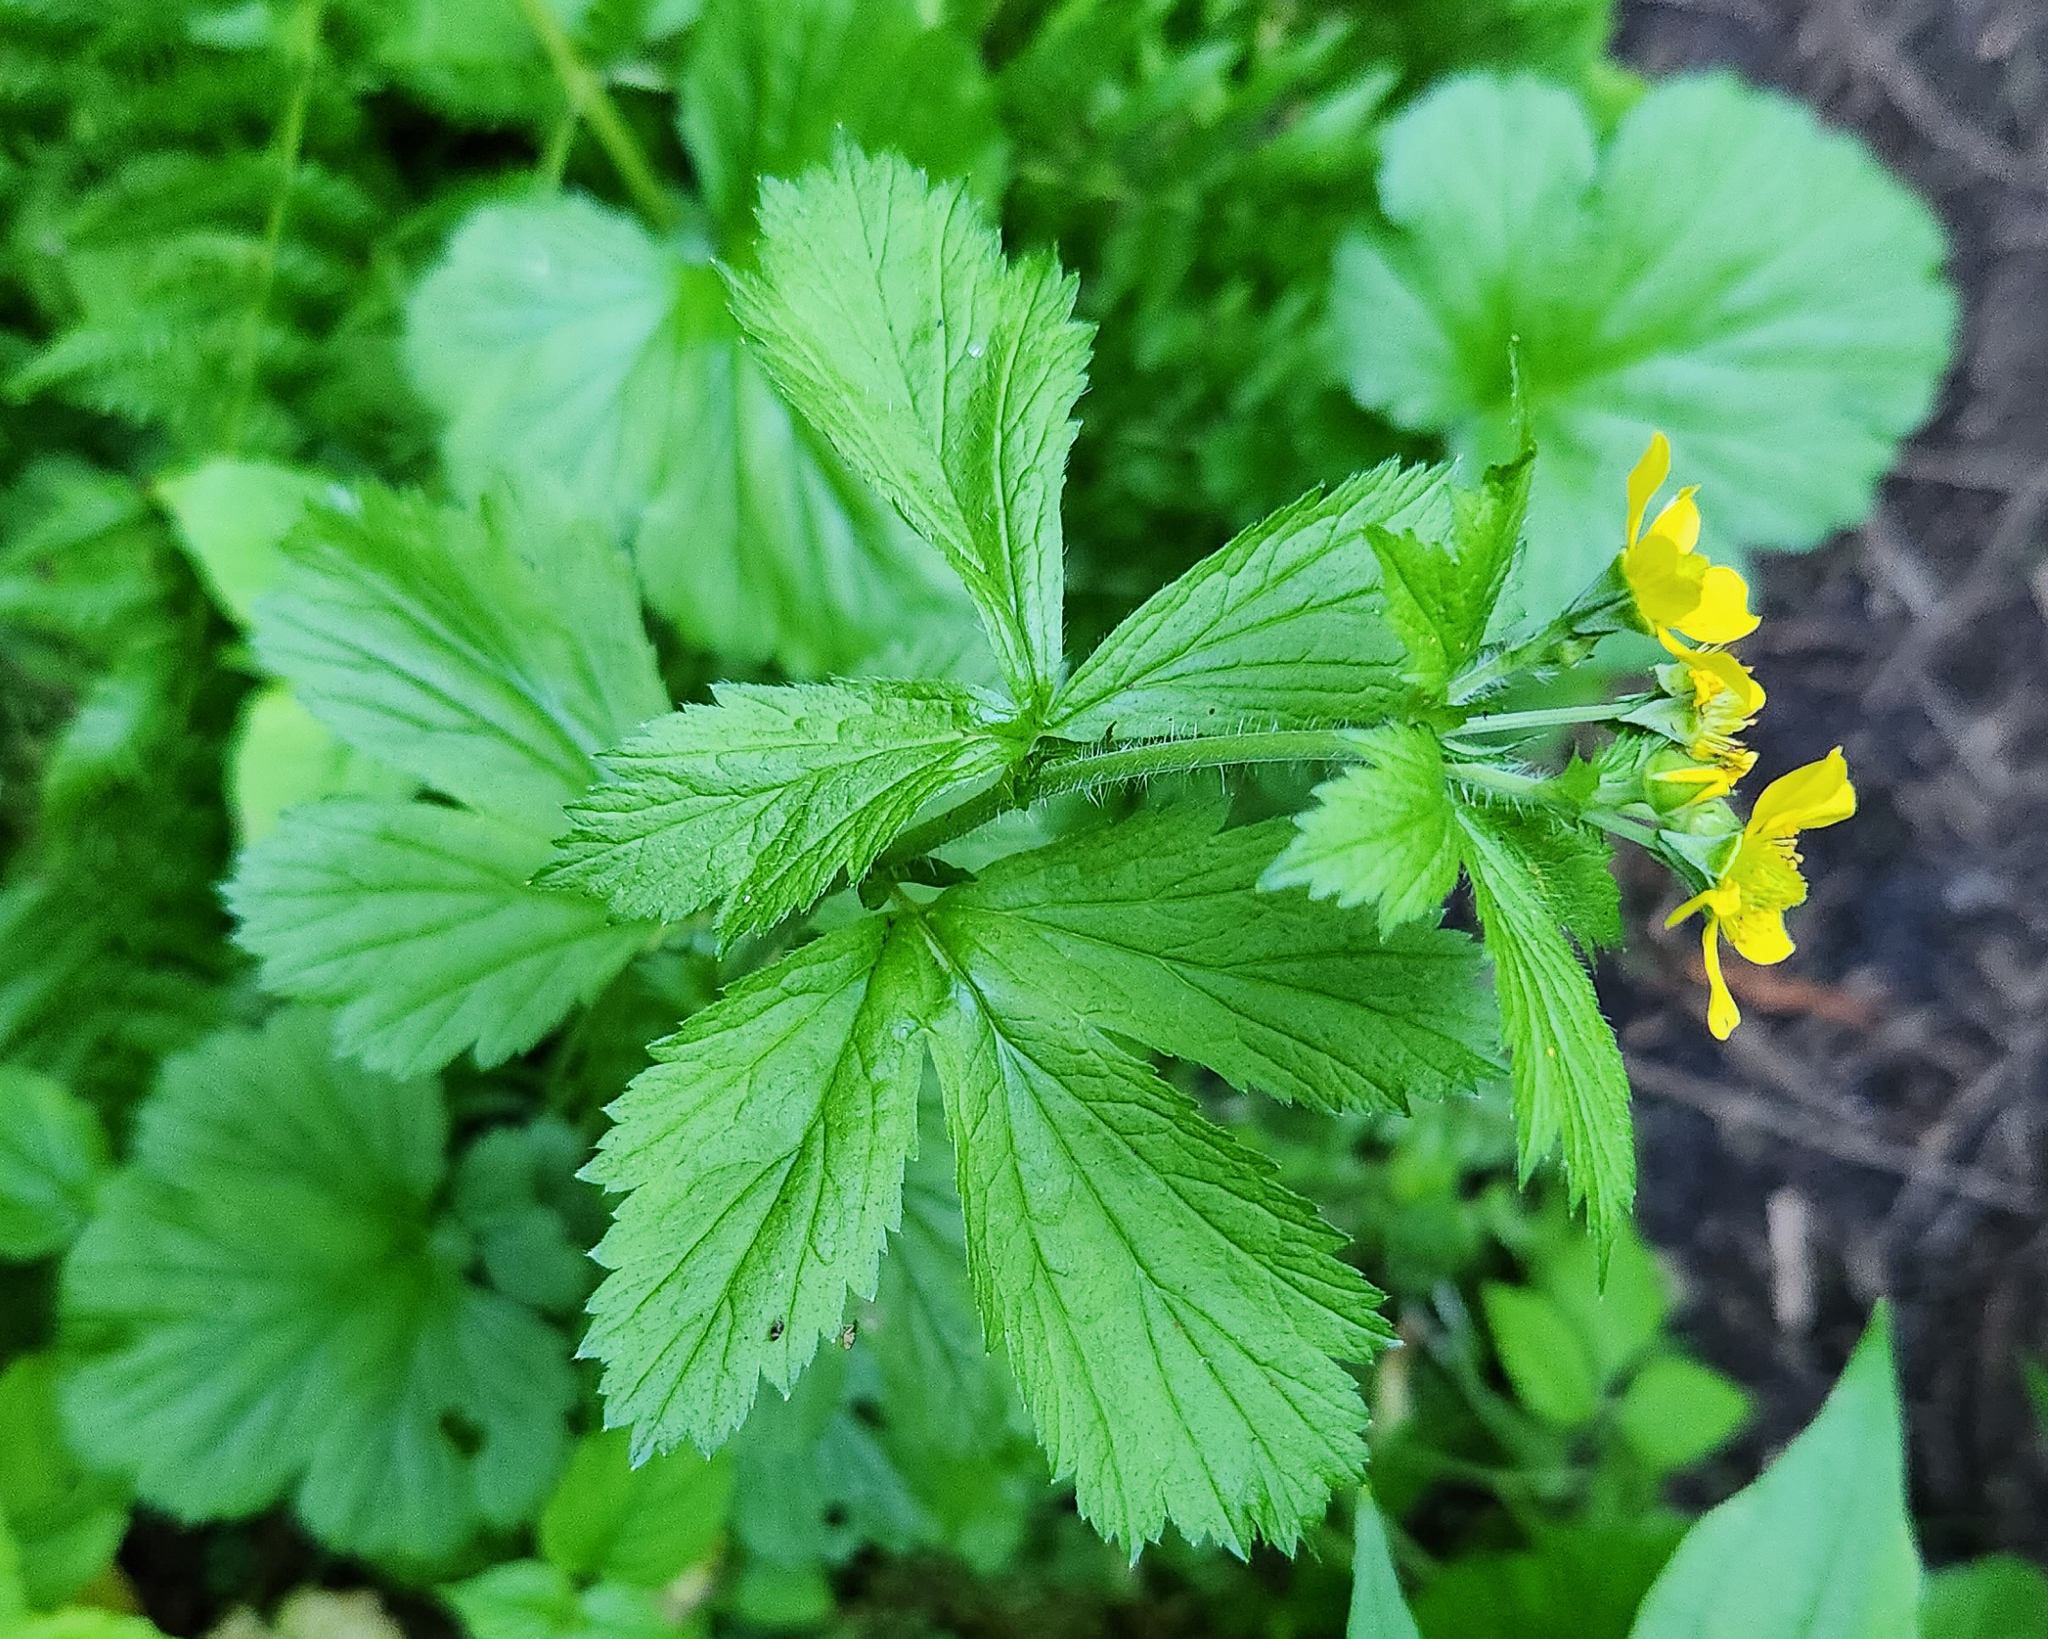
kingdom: Plantae
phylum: Tracheophyta
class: Magnoliopsida
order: Rosales
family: Rosaceae
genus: Geum
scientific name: Geum macrophyllum
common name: Large-leaved avens
